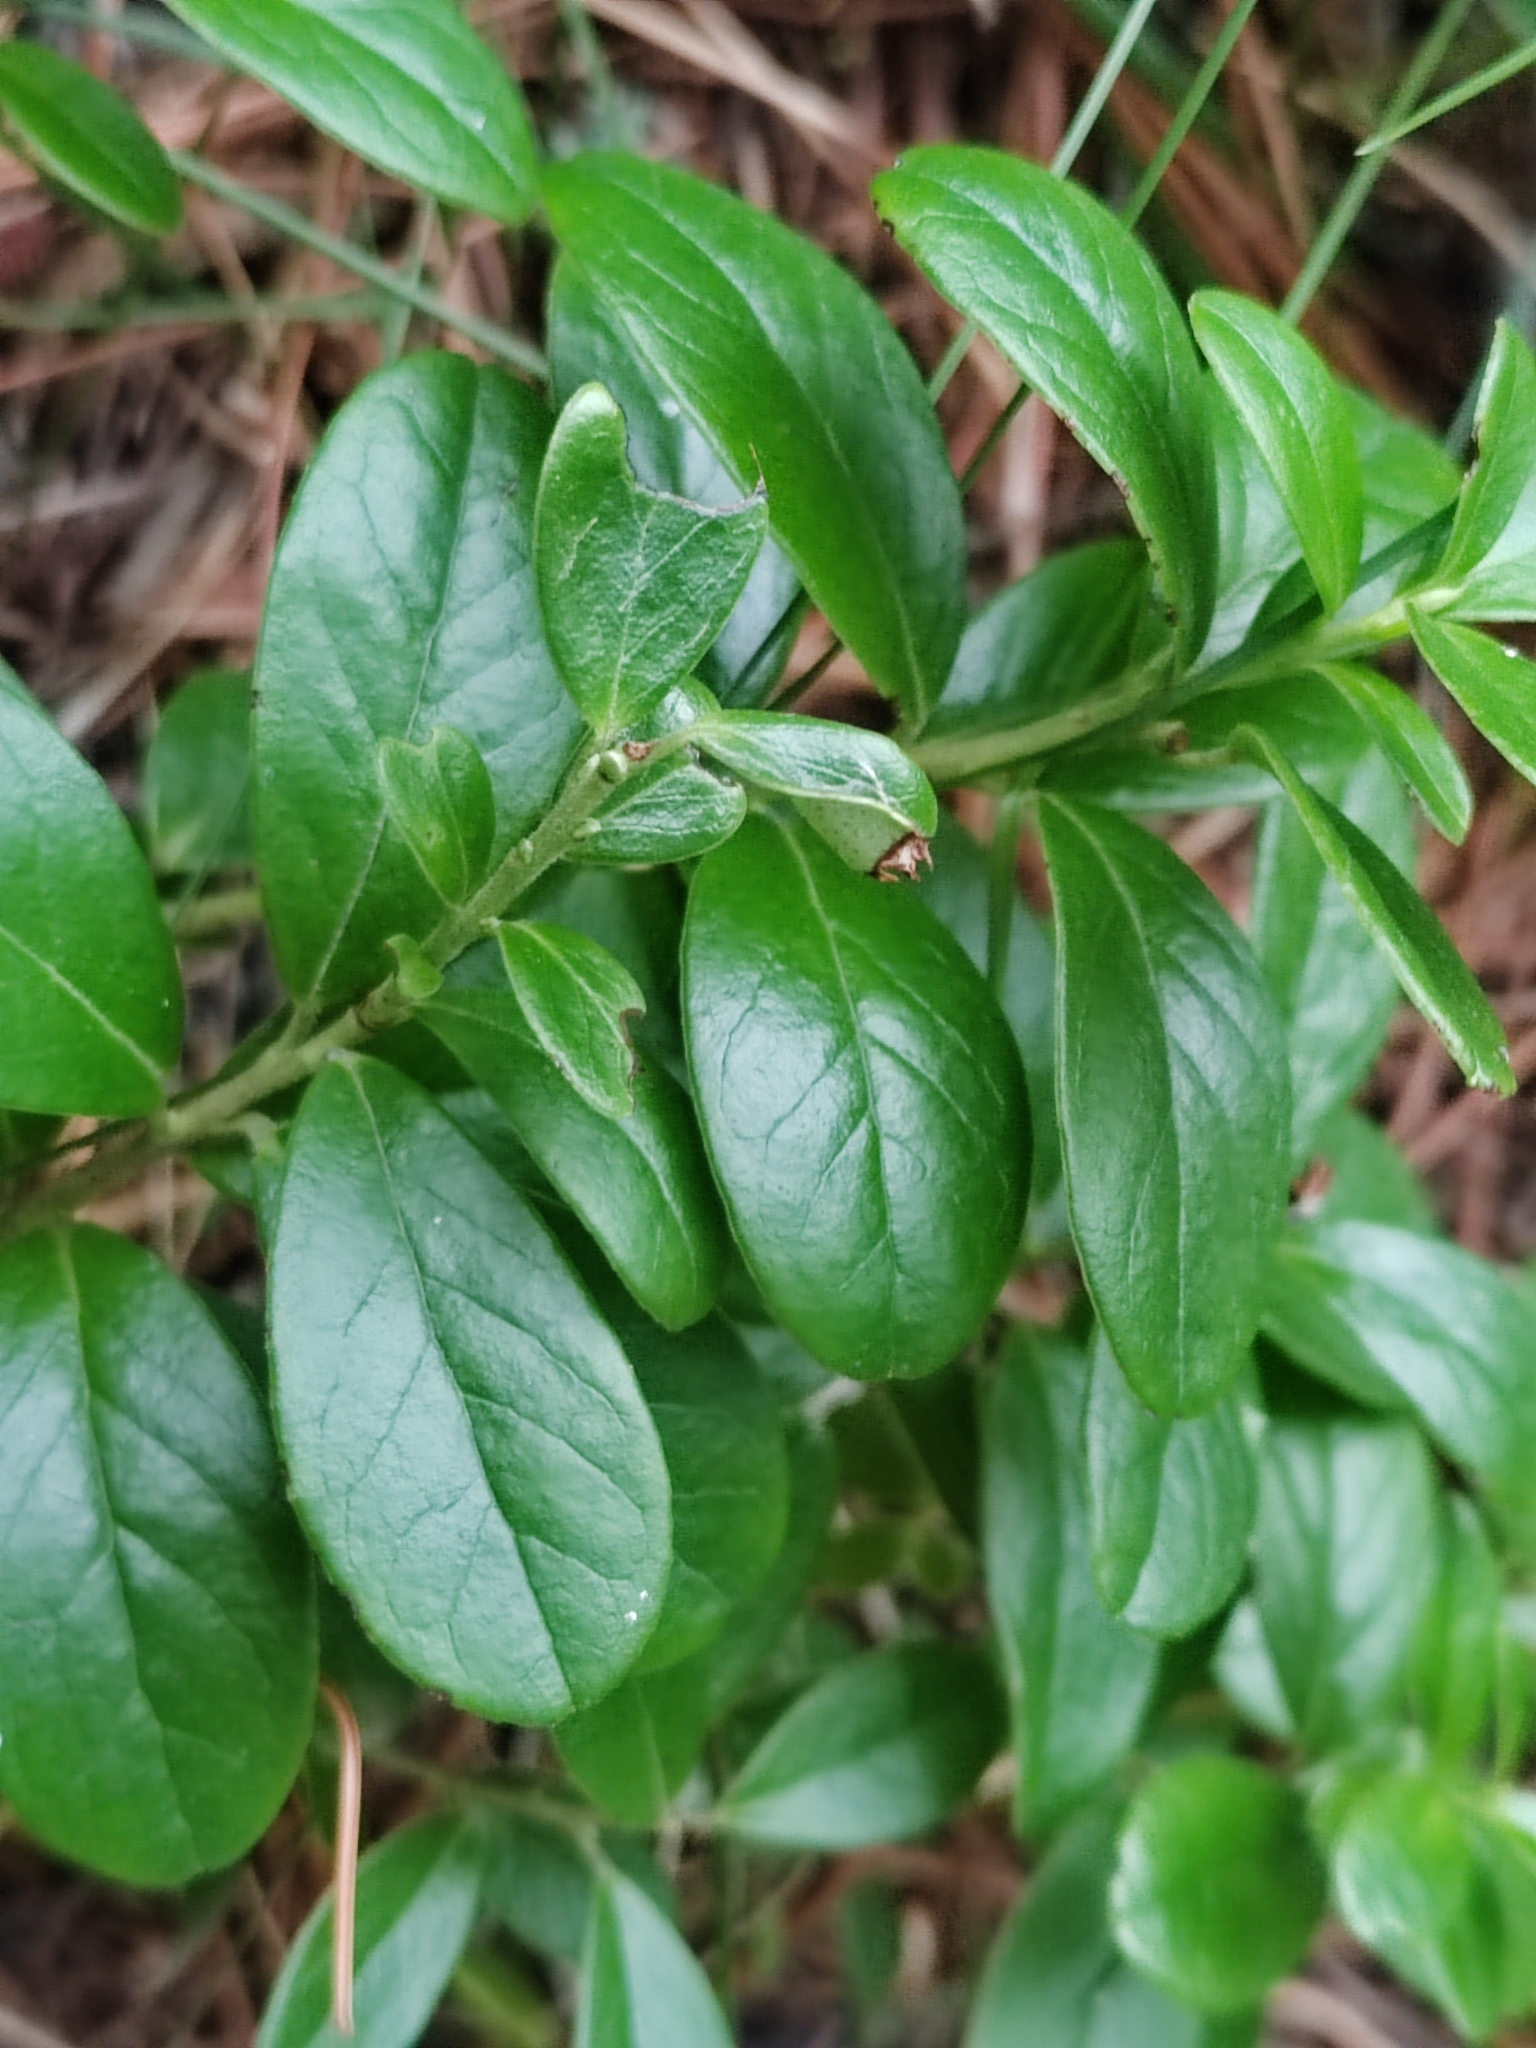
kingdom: Plantae
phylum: Tracheophyta
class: Magnoliopsida
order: Ericales
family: Ericaceae
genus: Vaccinium
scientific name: Vaccinium vitis-idaea
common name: Cowberry
